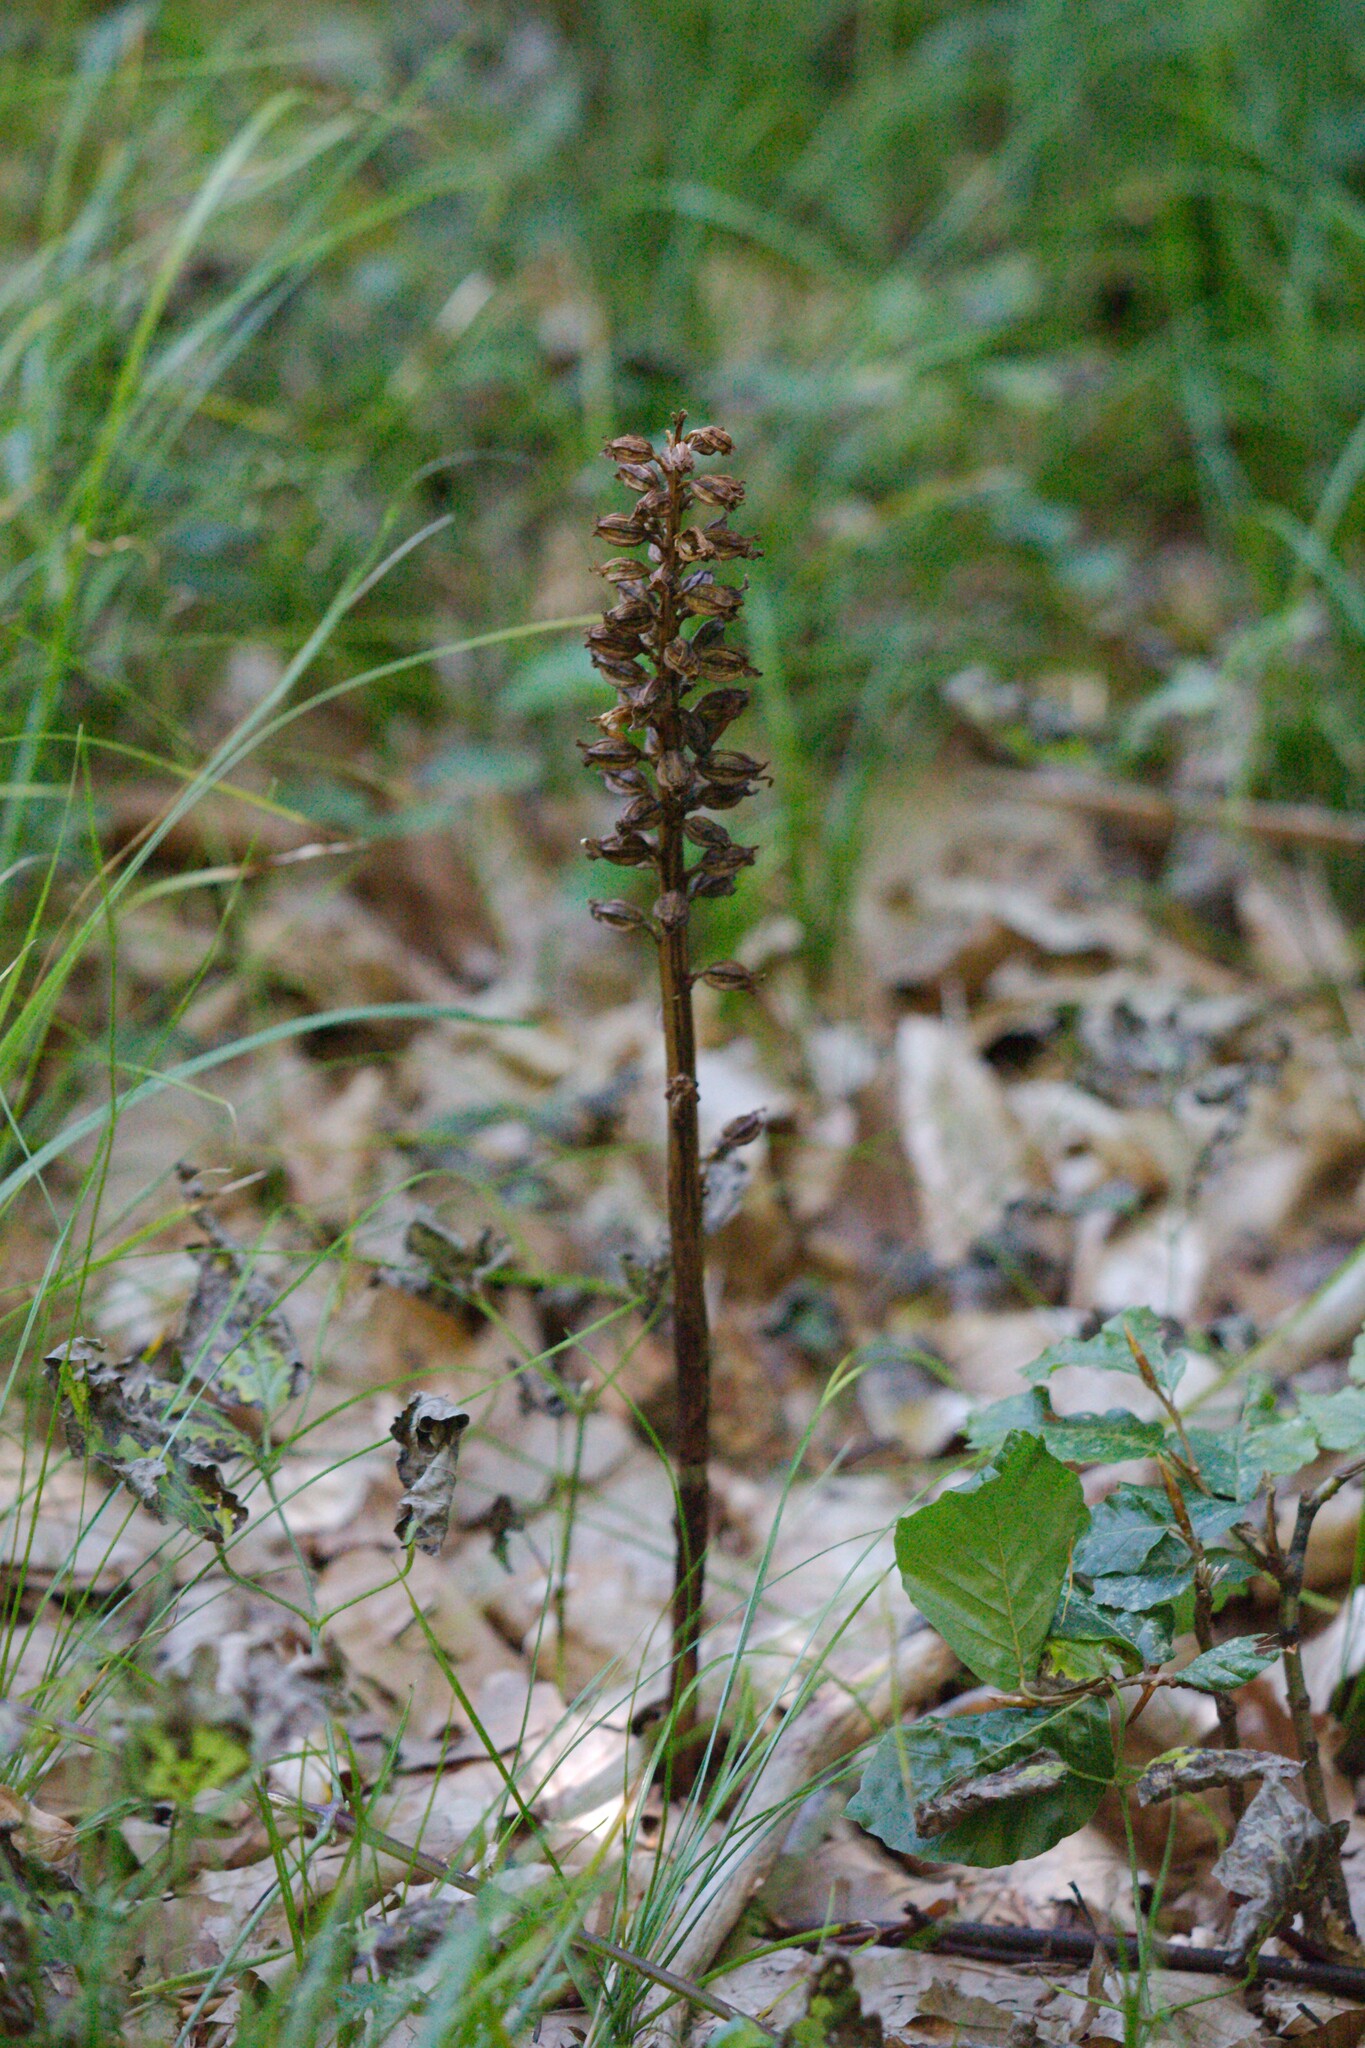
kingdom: Plantae
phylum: Tracheophyta
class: Liliopsida
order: Asparagales
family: Orchidaceae
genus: Neottia
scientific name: Neottia nidus-avis
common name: Bird's-nest orchid
